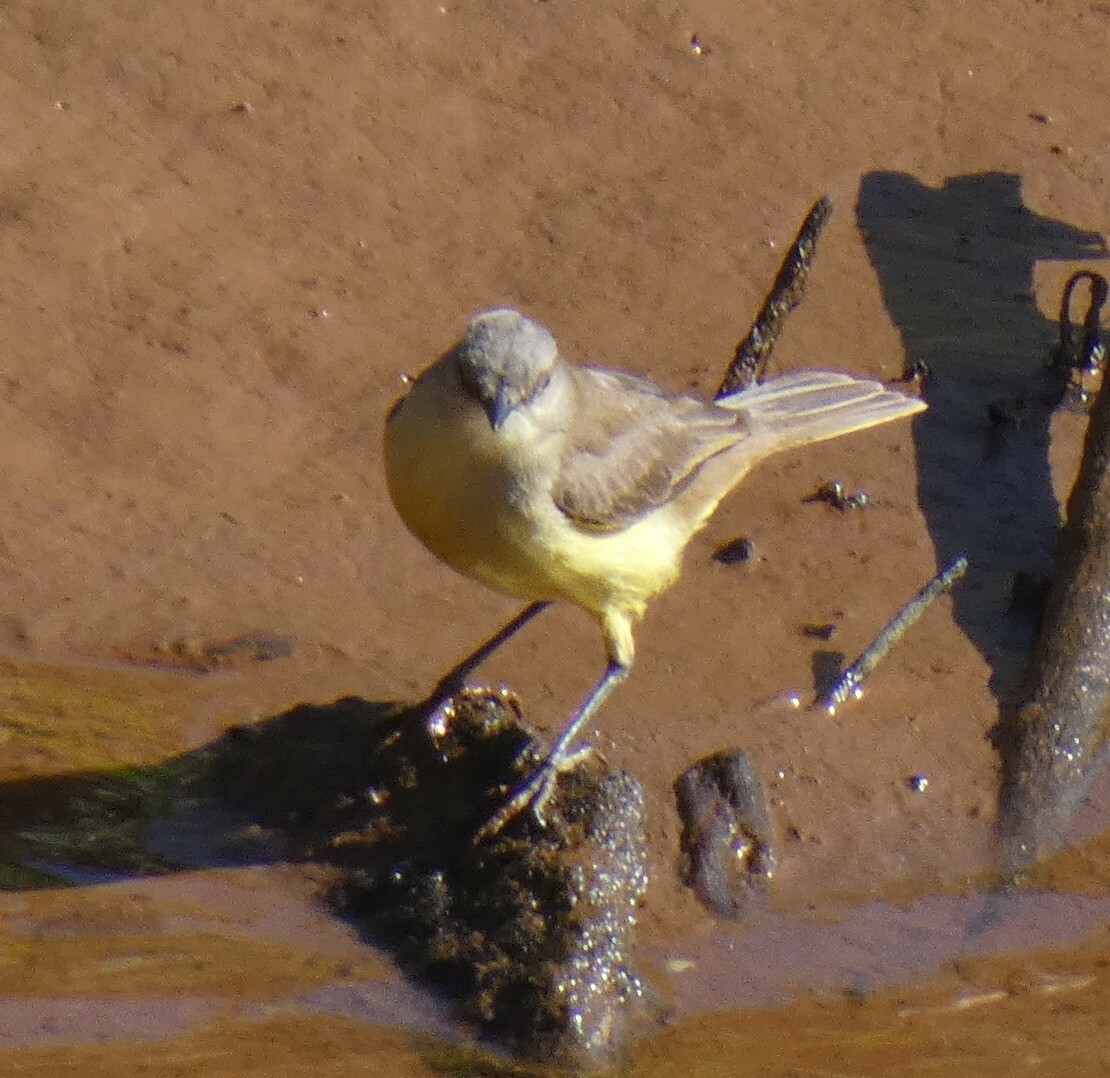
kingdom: Animalia
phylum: Chordata
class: Aves
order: Passeriformes
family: Tyrannidae
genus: Machetornis
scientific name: Machetornis rixosa
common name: Cattle tyrant
